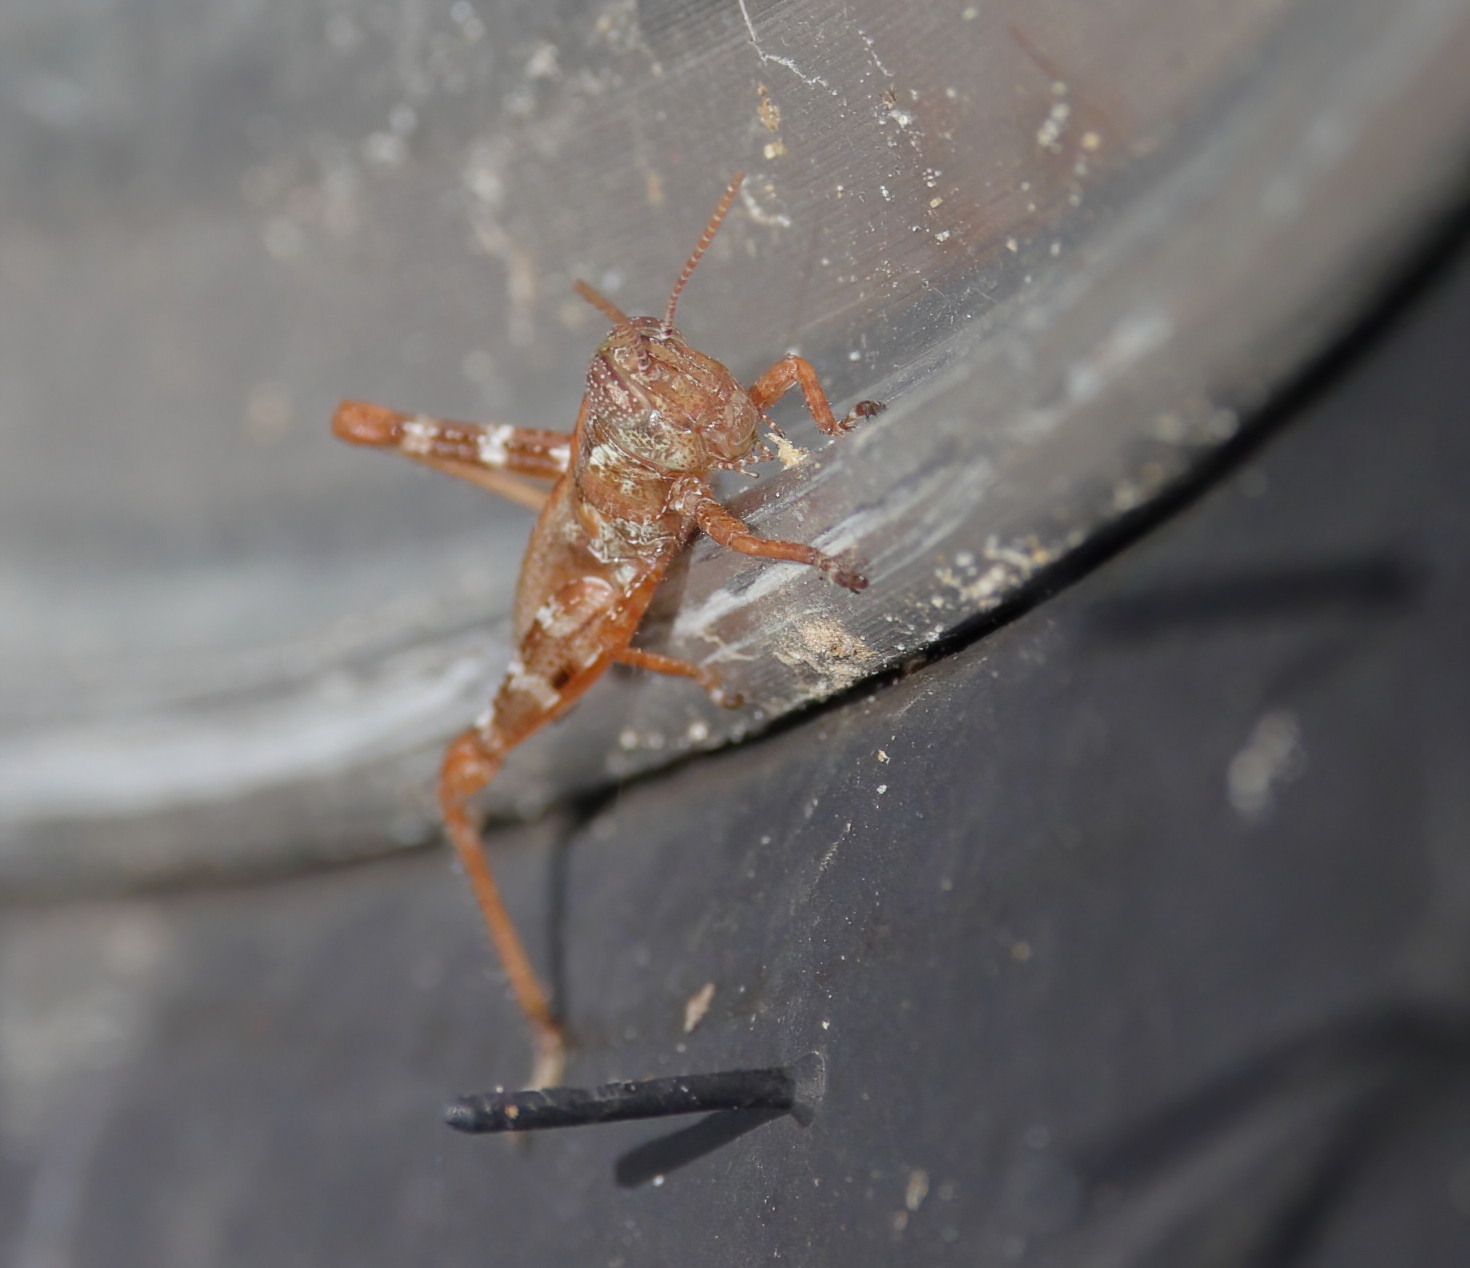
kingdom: Animalia
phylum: Arthropoda
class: Insecta
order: Orthoptera
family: Acrididae
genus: Melanoplus
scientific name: Melanoplus punctulatus
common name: Pine-tree spur-throat grasshopper
